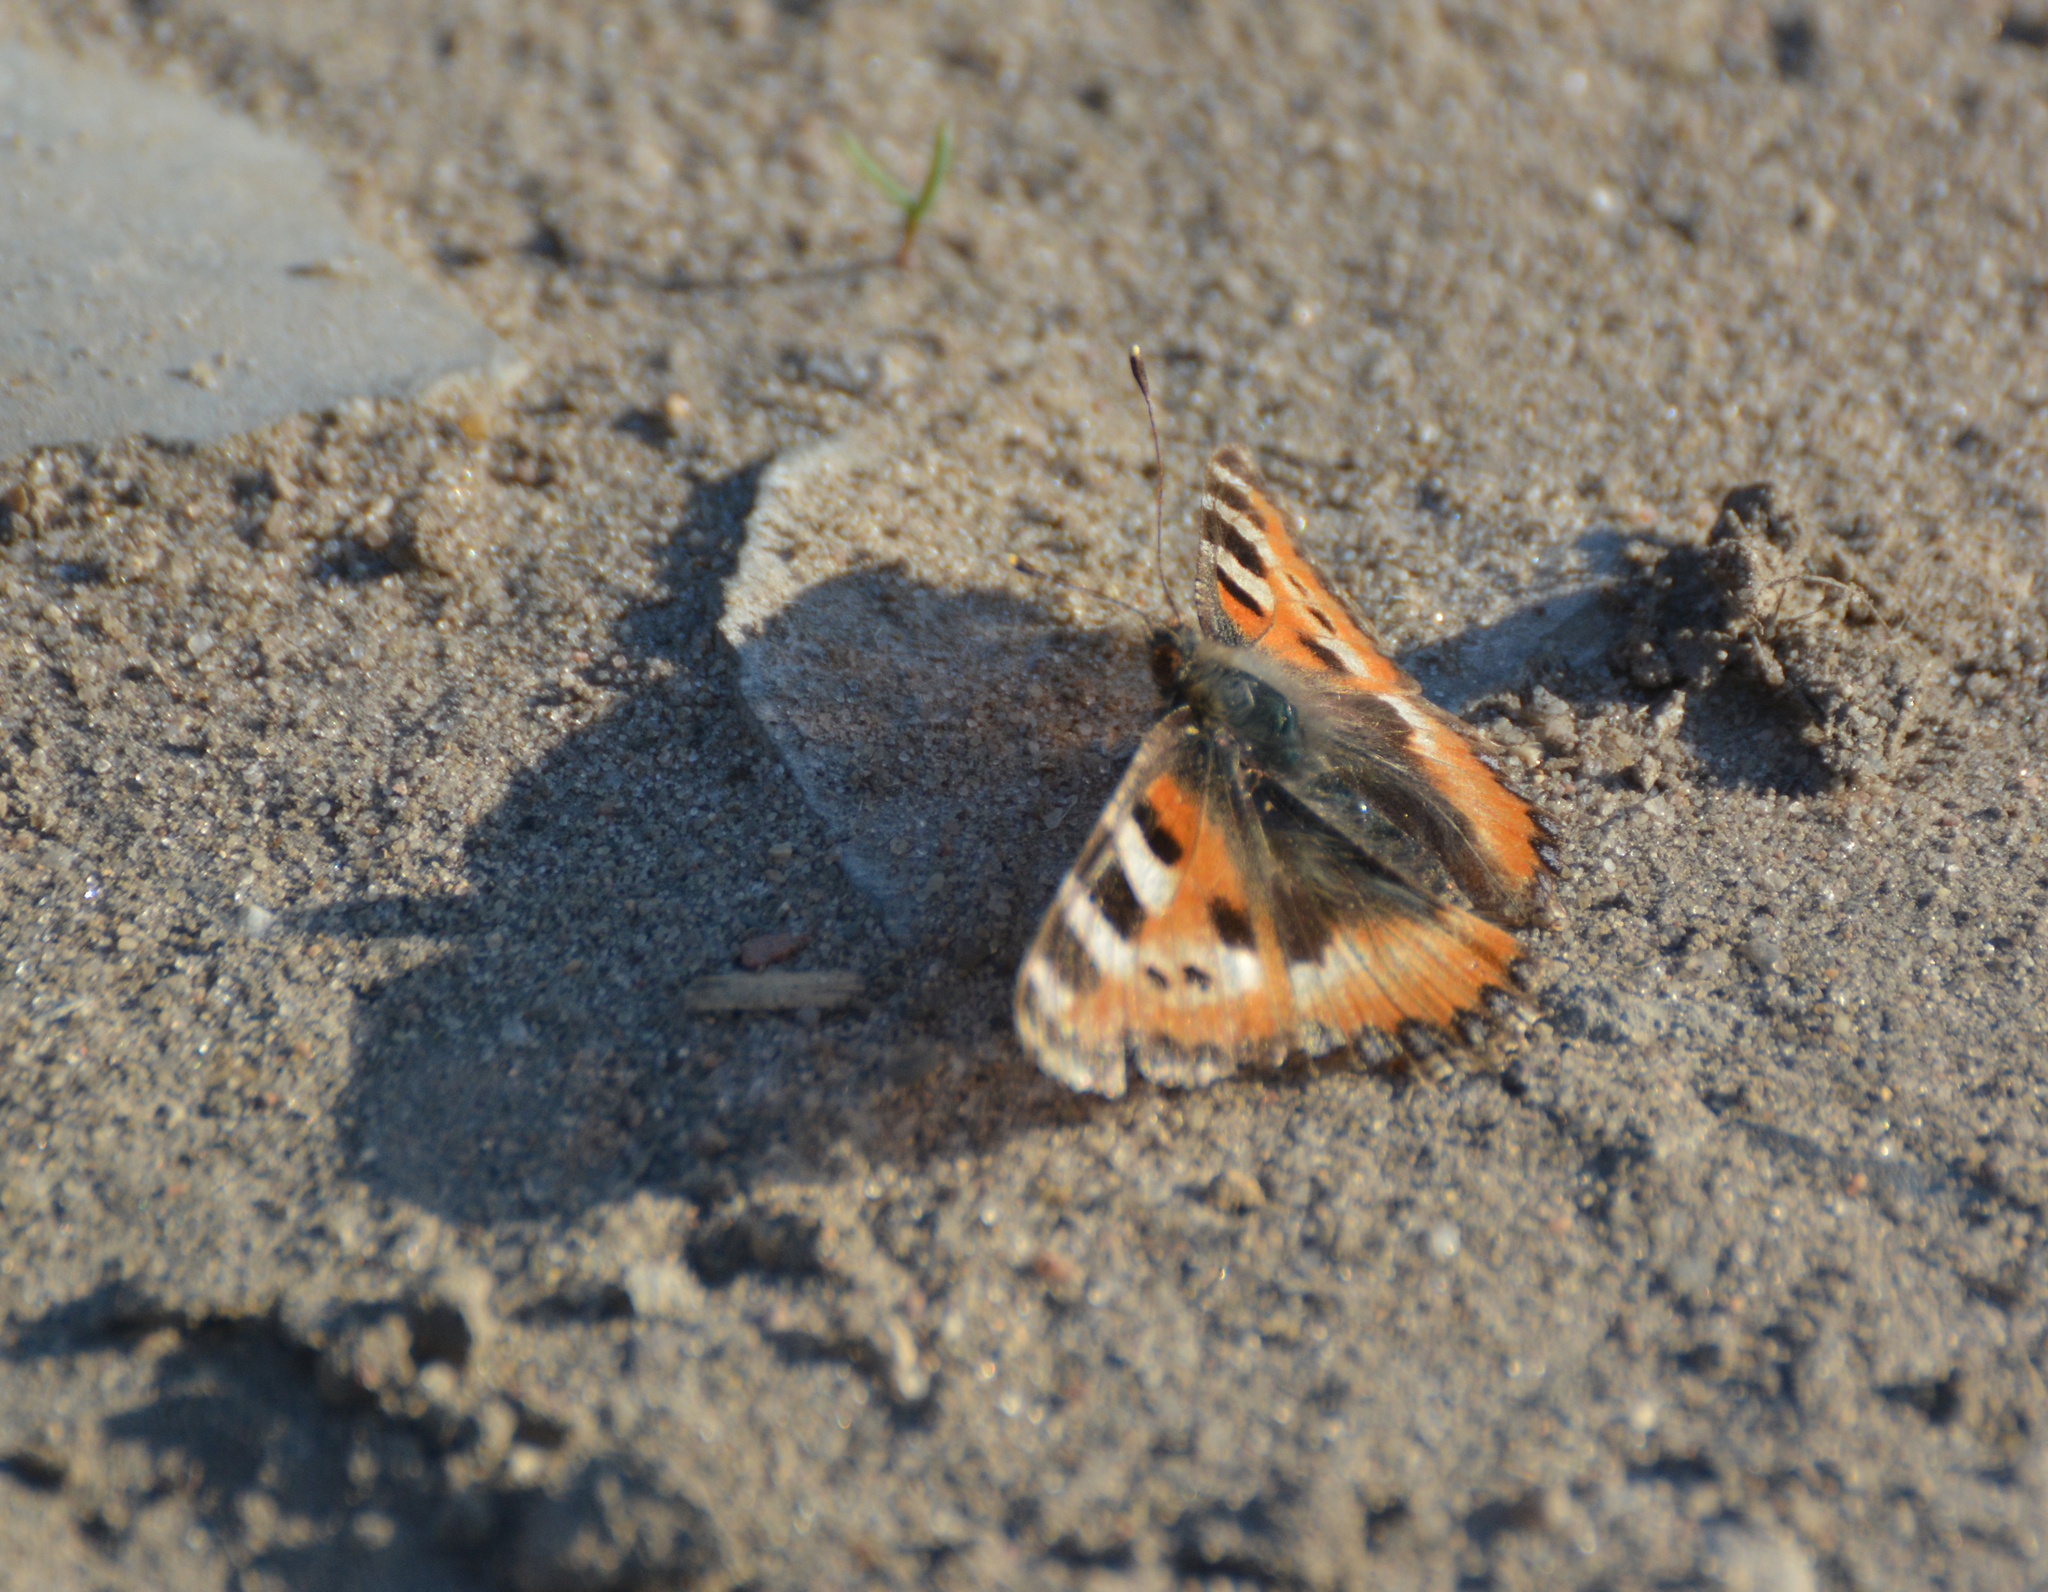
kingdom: Animalia
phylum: Arthropoda
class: Insecta
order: Lepidoptera
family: Nymphalidae
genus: Aglais
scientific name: Aglais urticae
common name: Small tortoiseshell
